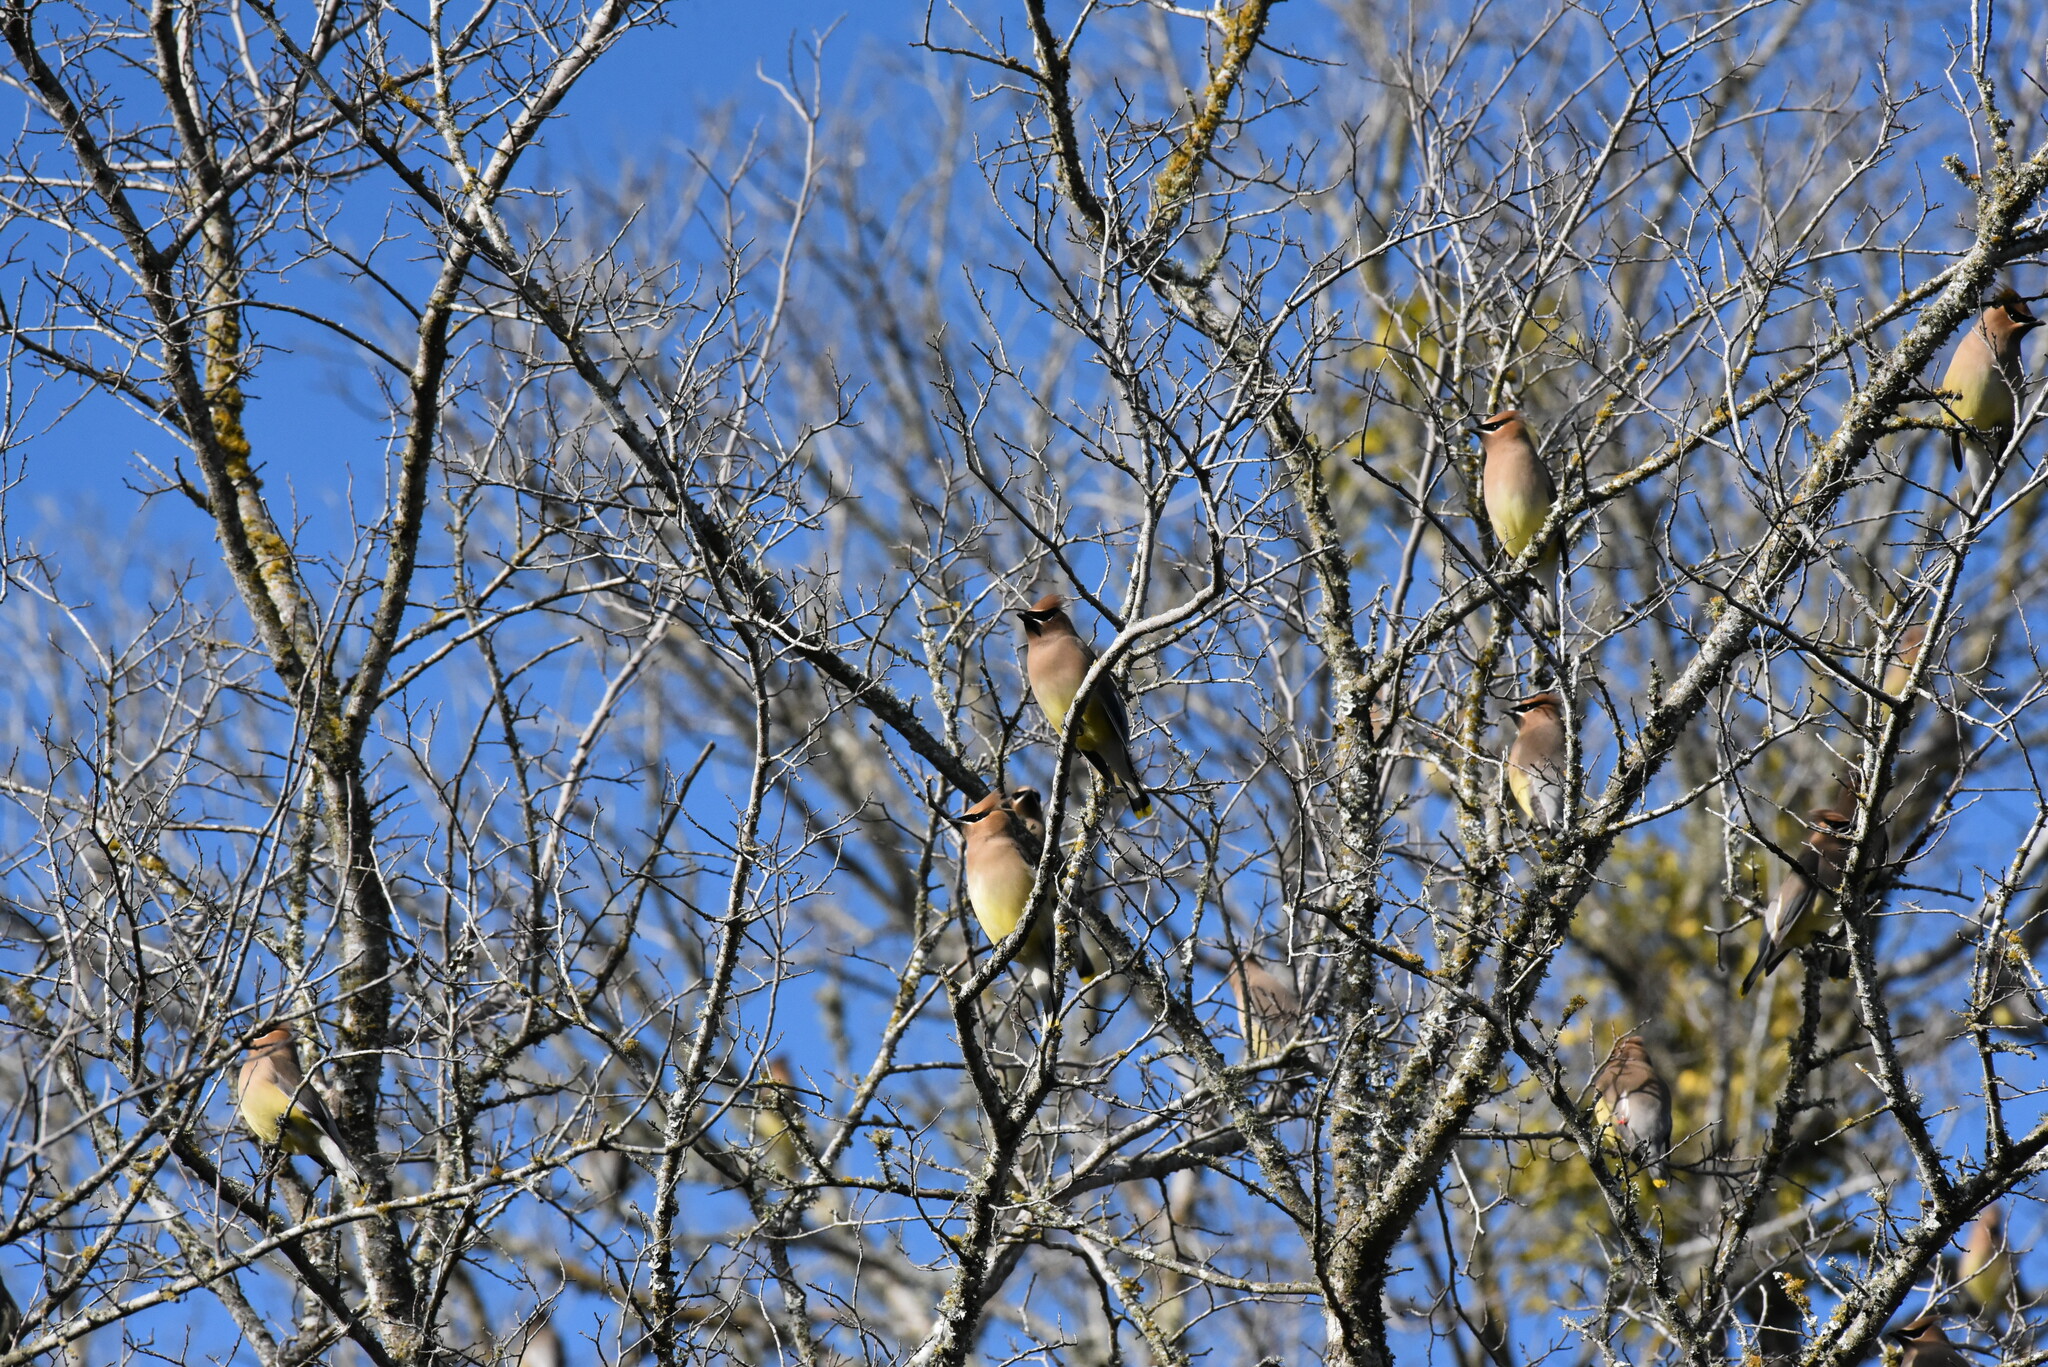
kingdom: Animalia
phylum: Chordata
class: Aves
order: Passeriformes
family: Bombycillidae
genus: Bombycilla
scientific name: Bombycilla cedrorum
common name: Cedar waxwing
